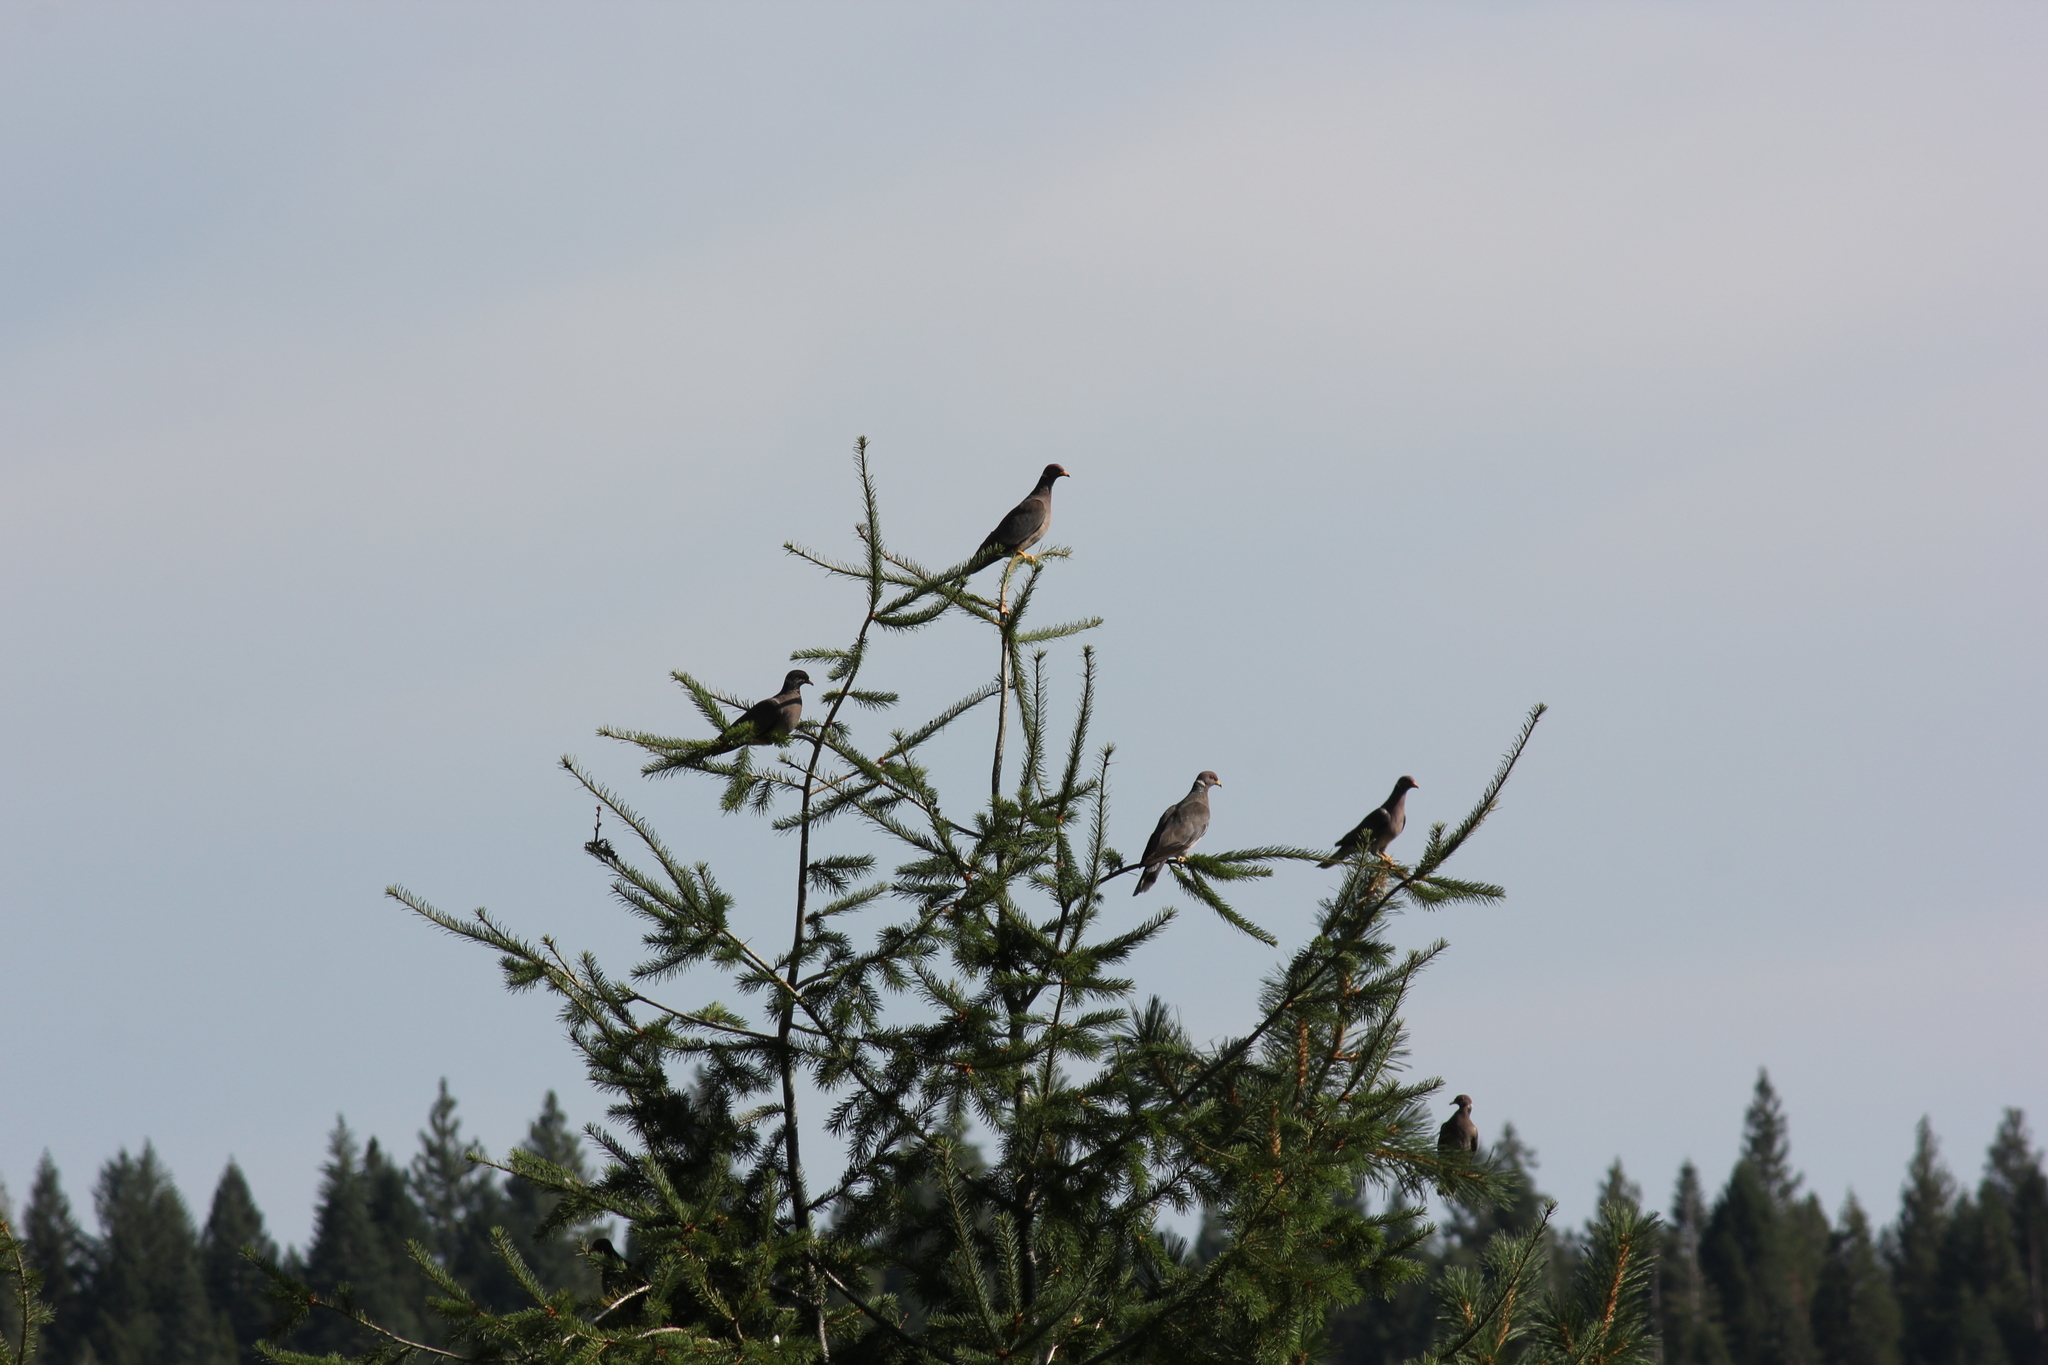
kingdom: Animalia
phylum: Chordata
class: Aves
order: Columbiformes
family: Columbidae
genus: Patagioenas
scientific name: Patagioenas fasciata
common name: Band-tailed pigeon
